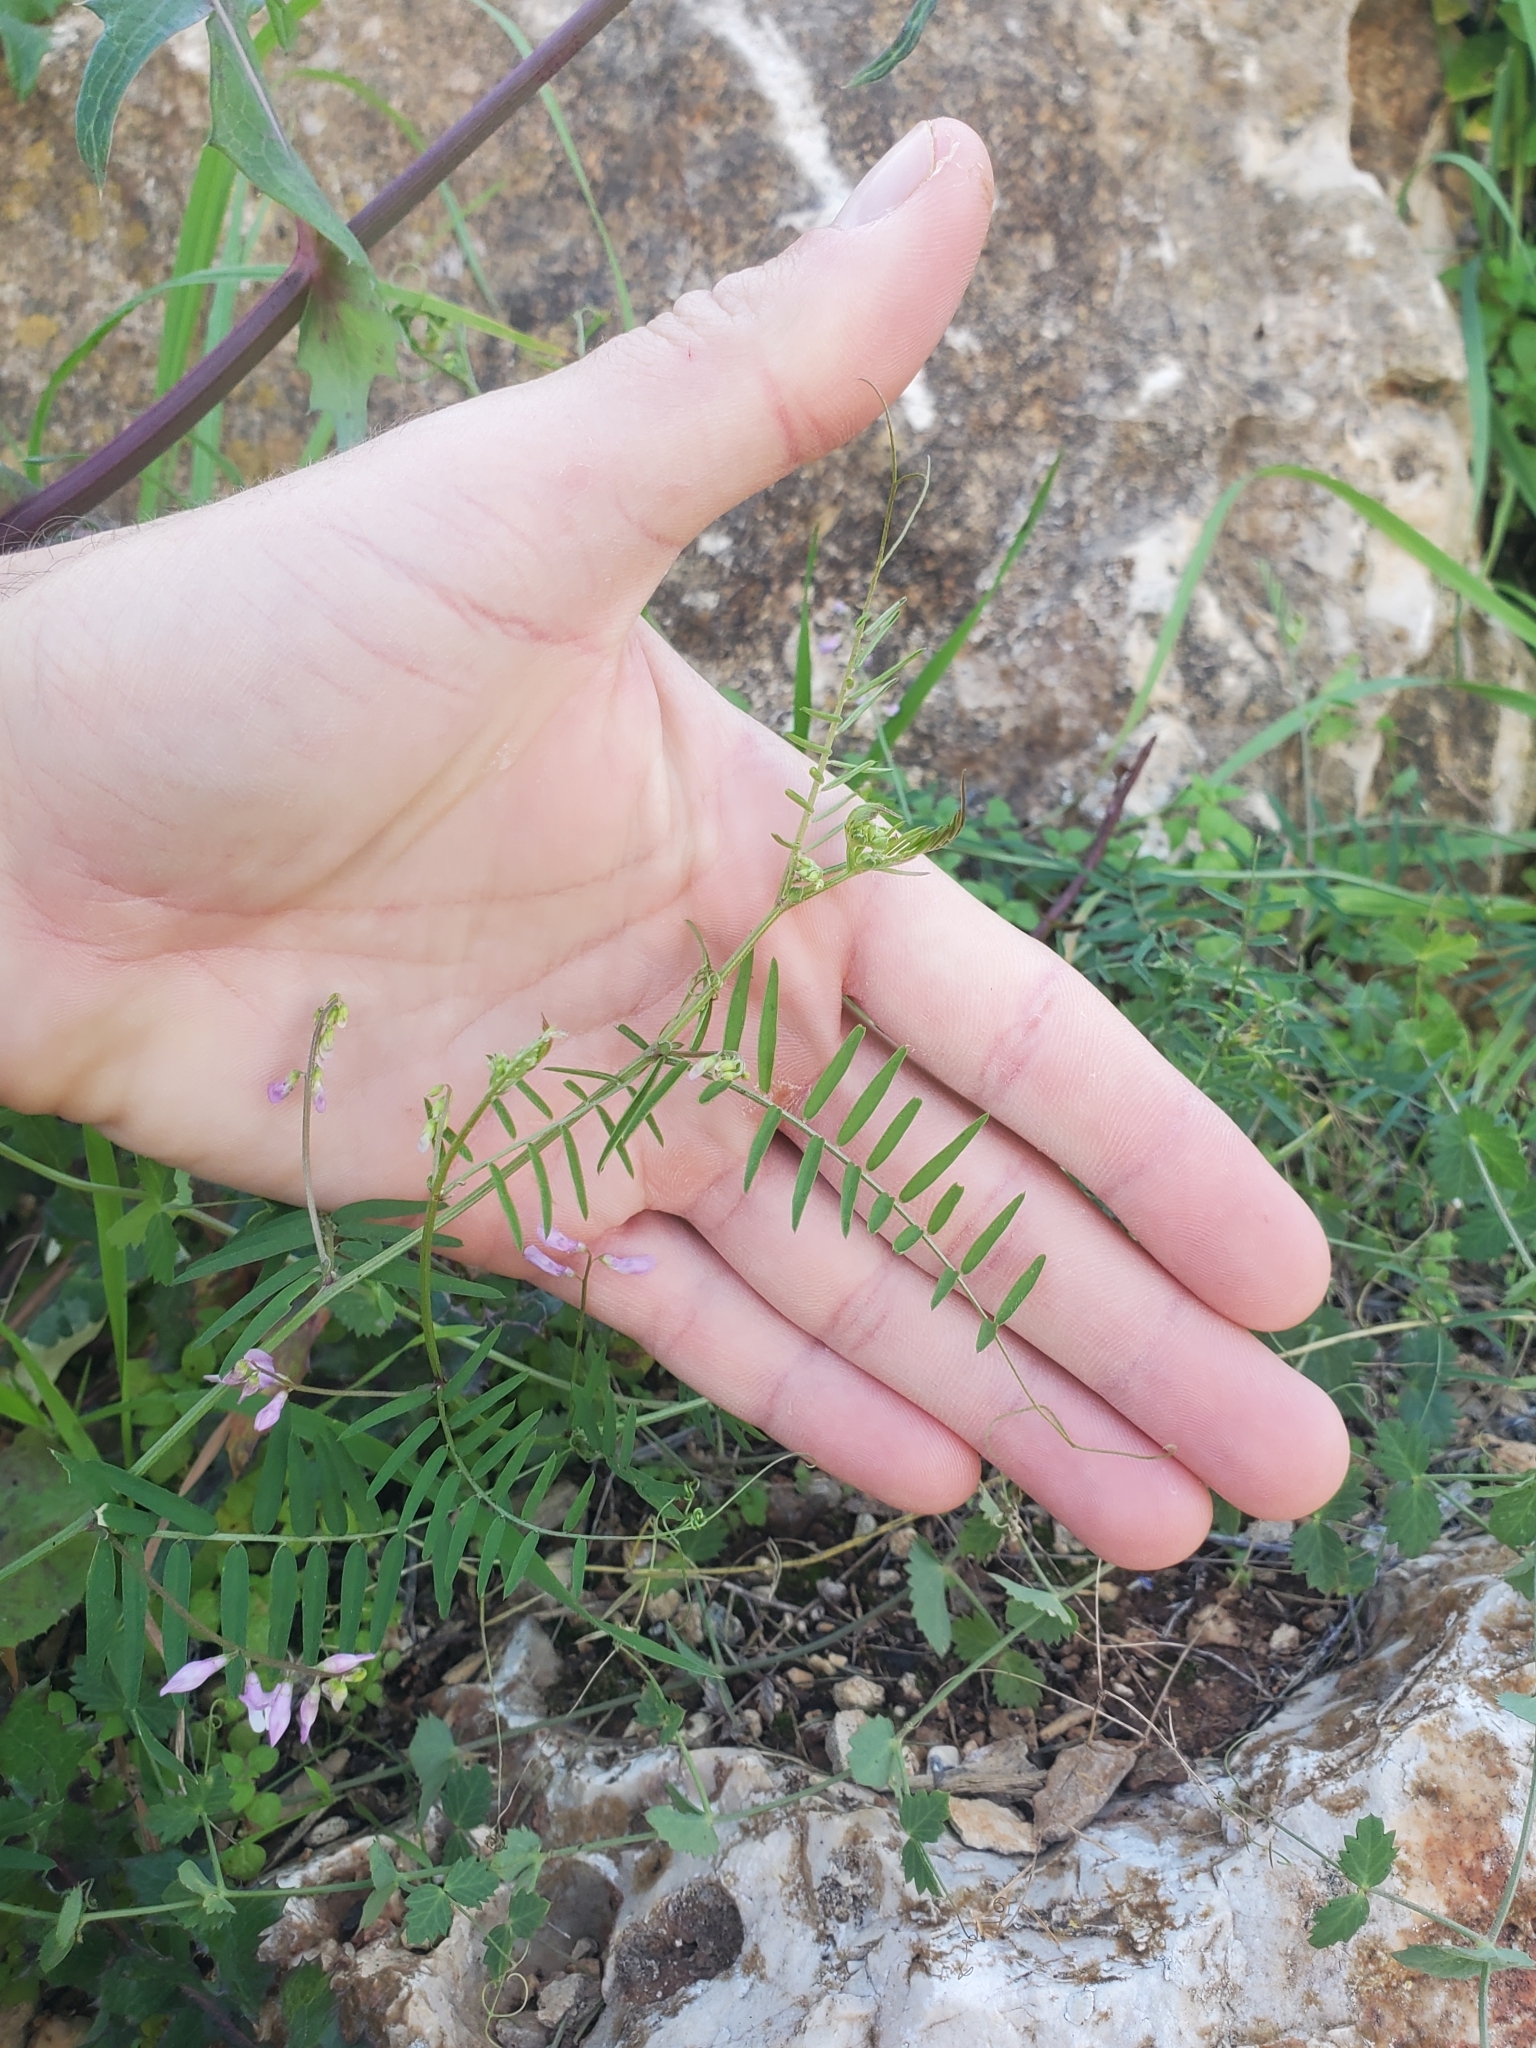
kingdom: Plantae
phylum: Tracheophyta
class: Magnoliopsida
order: Fabales
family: Fabaceae
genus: Vicia
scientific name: Vicia palaestina
